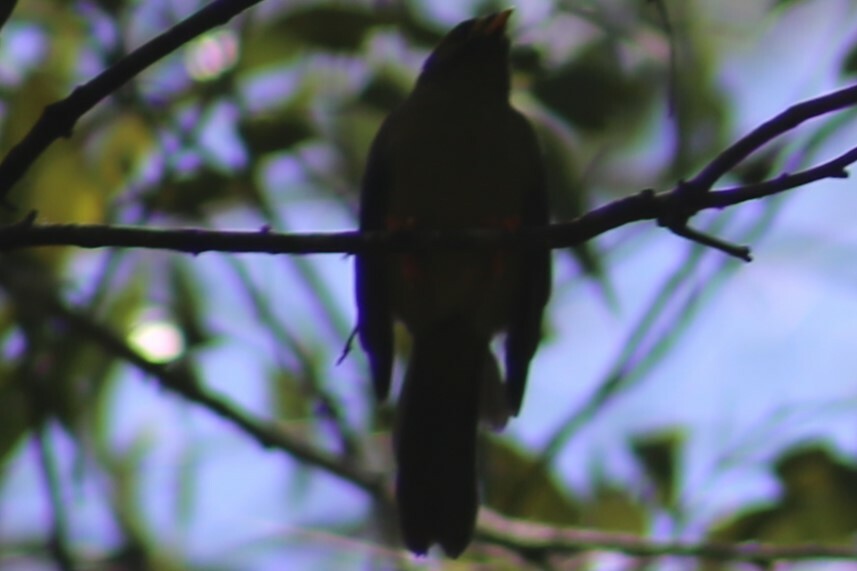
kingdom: Animalia
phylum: Chordata
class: Aves
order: Passeriformes
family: Meliphagidae
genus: Manorina
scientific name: Manorina melanophrys
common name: Bell miner
